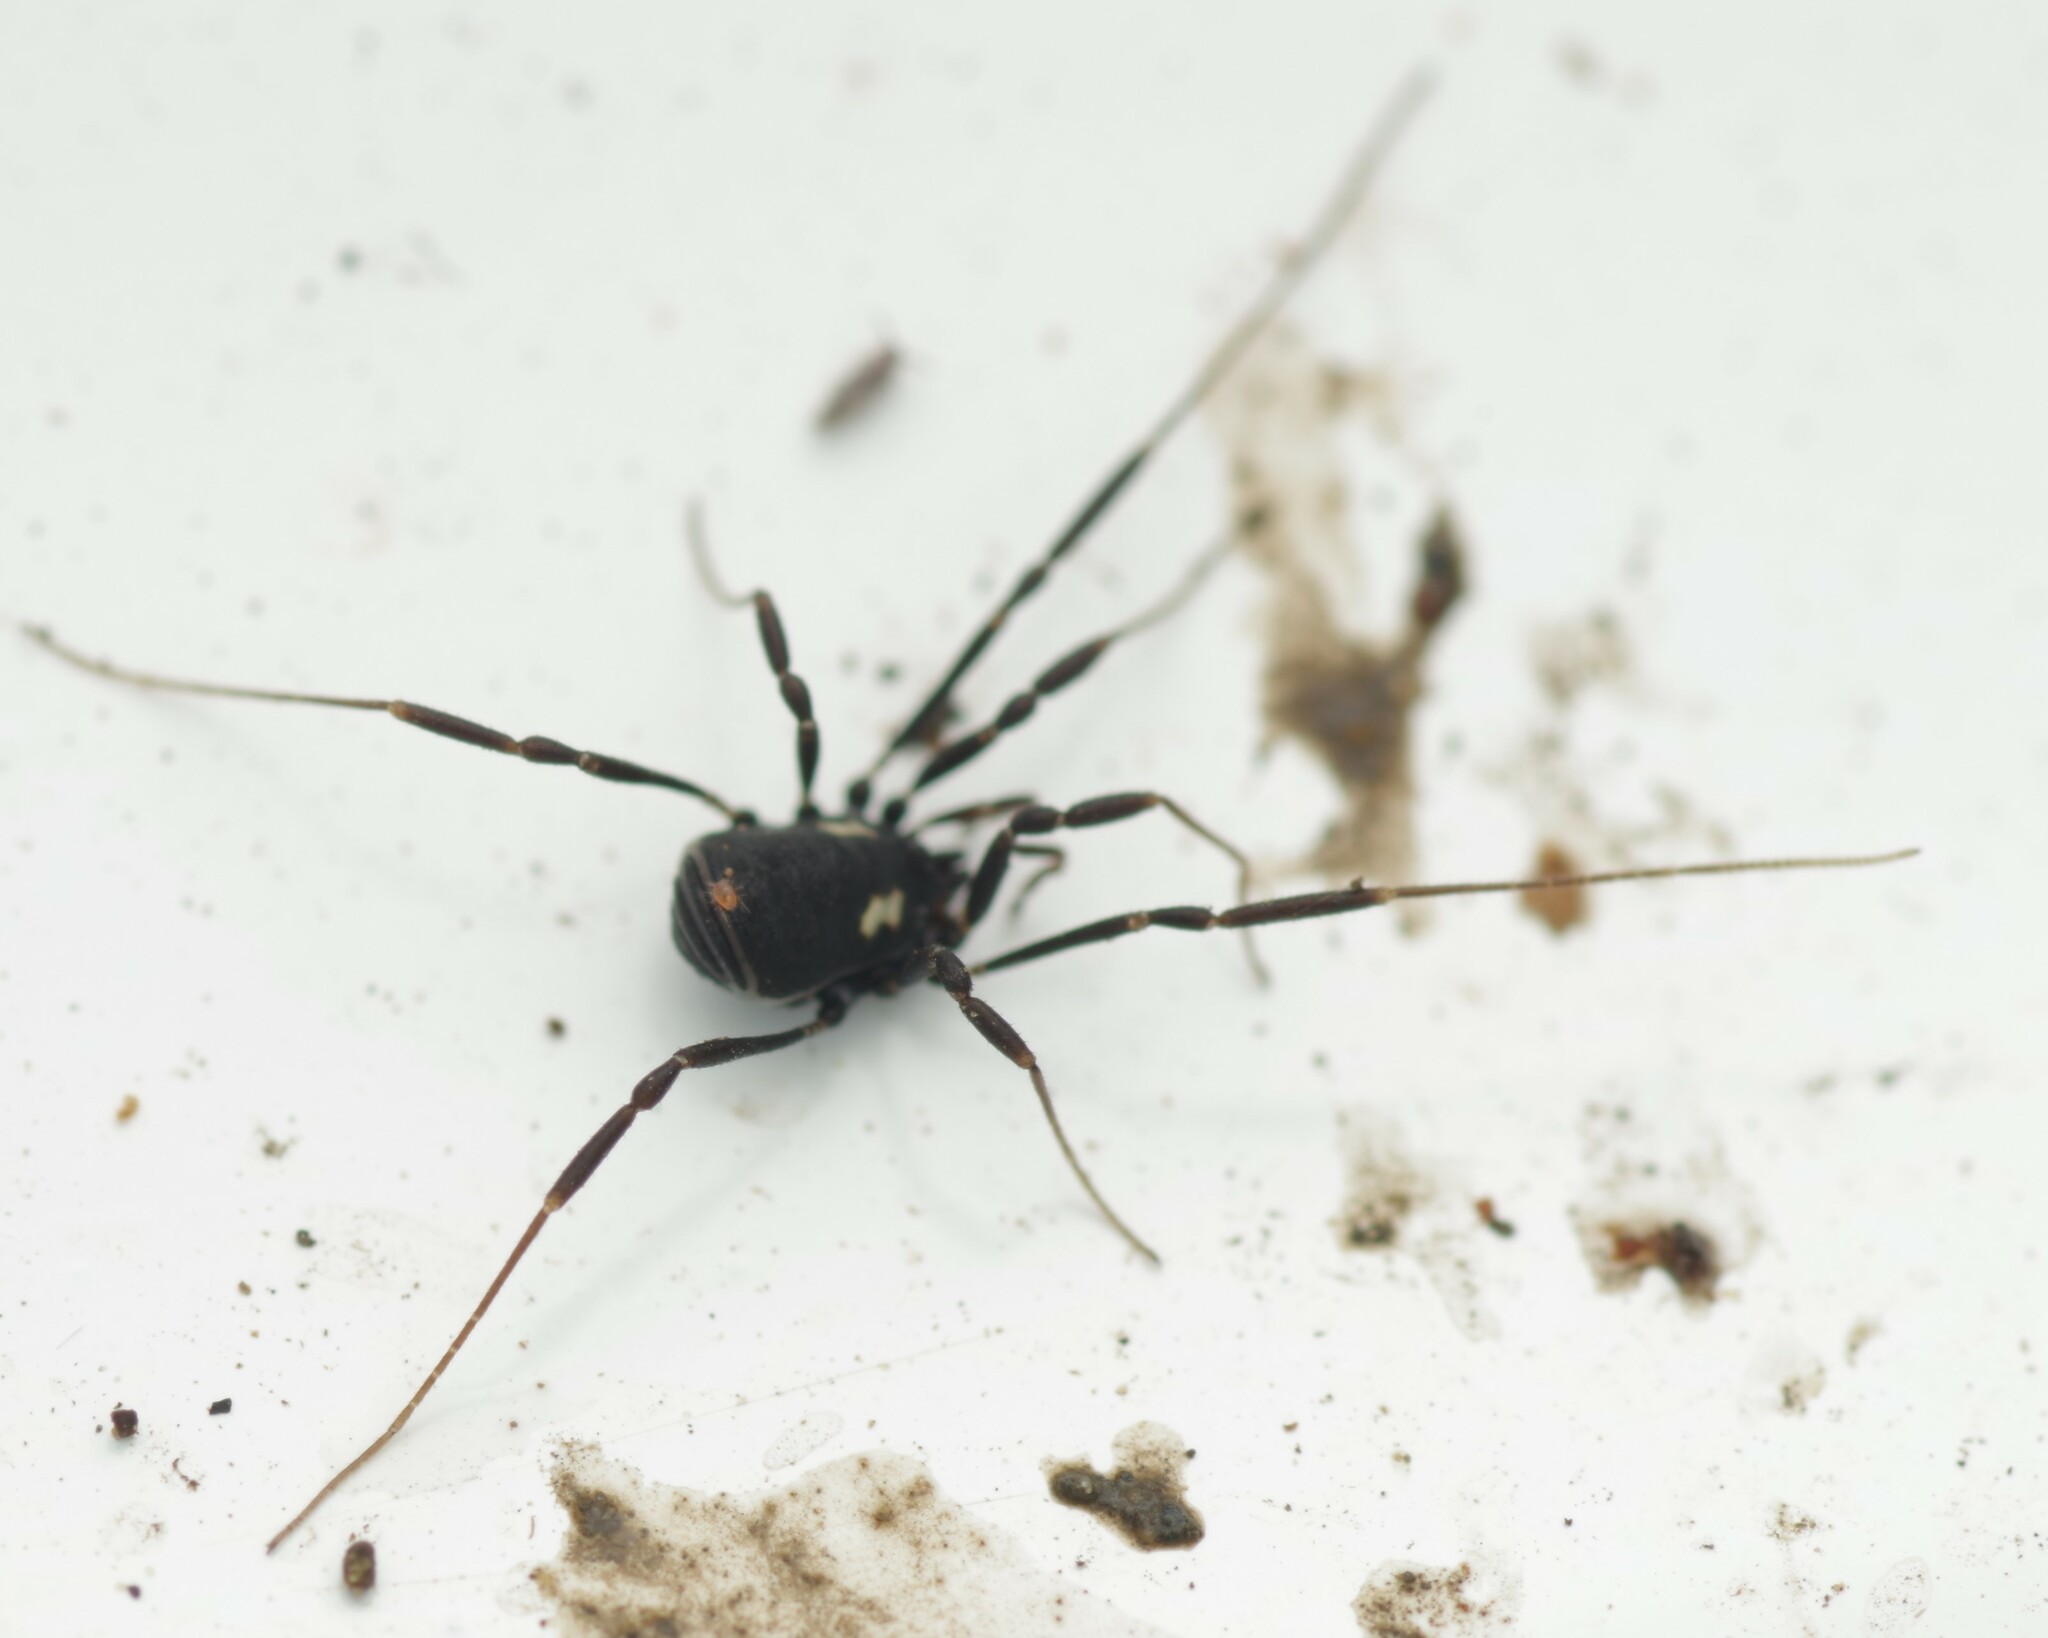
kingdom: Animalia
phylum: Arthropoda
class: Arachnida
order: Opiliones
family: Nemastomatidae
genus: Nemastoma
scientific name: Nemastoma bimaculatum
